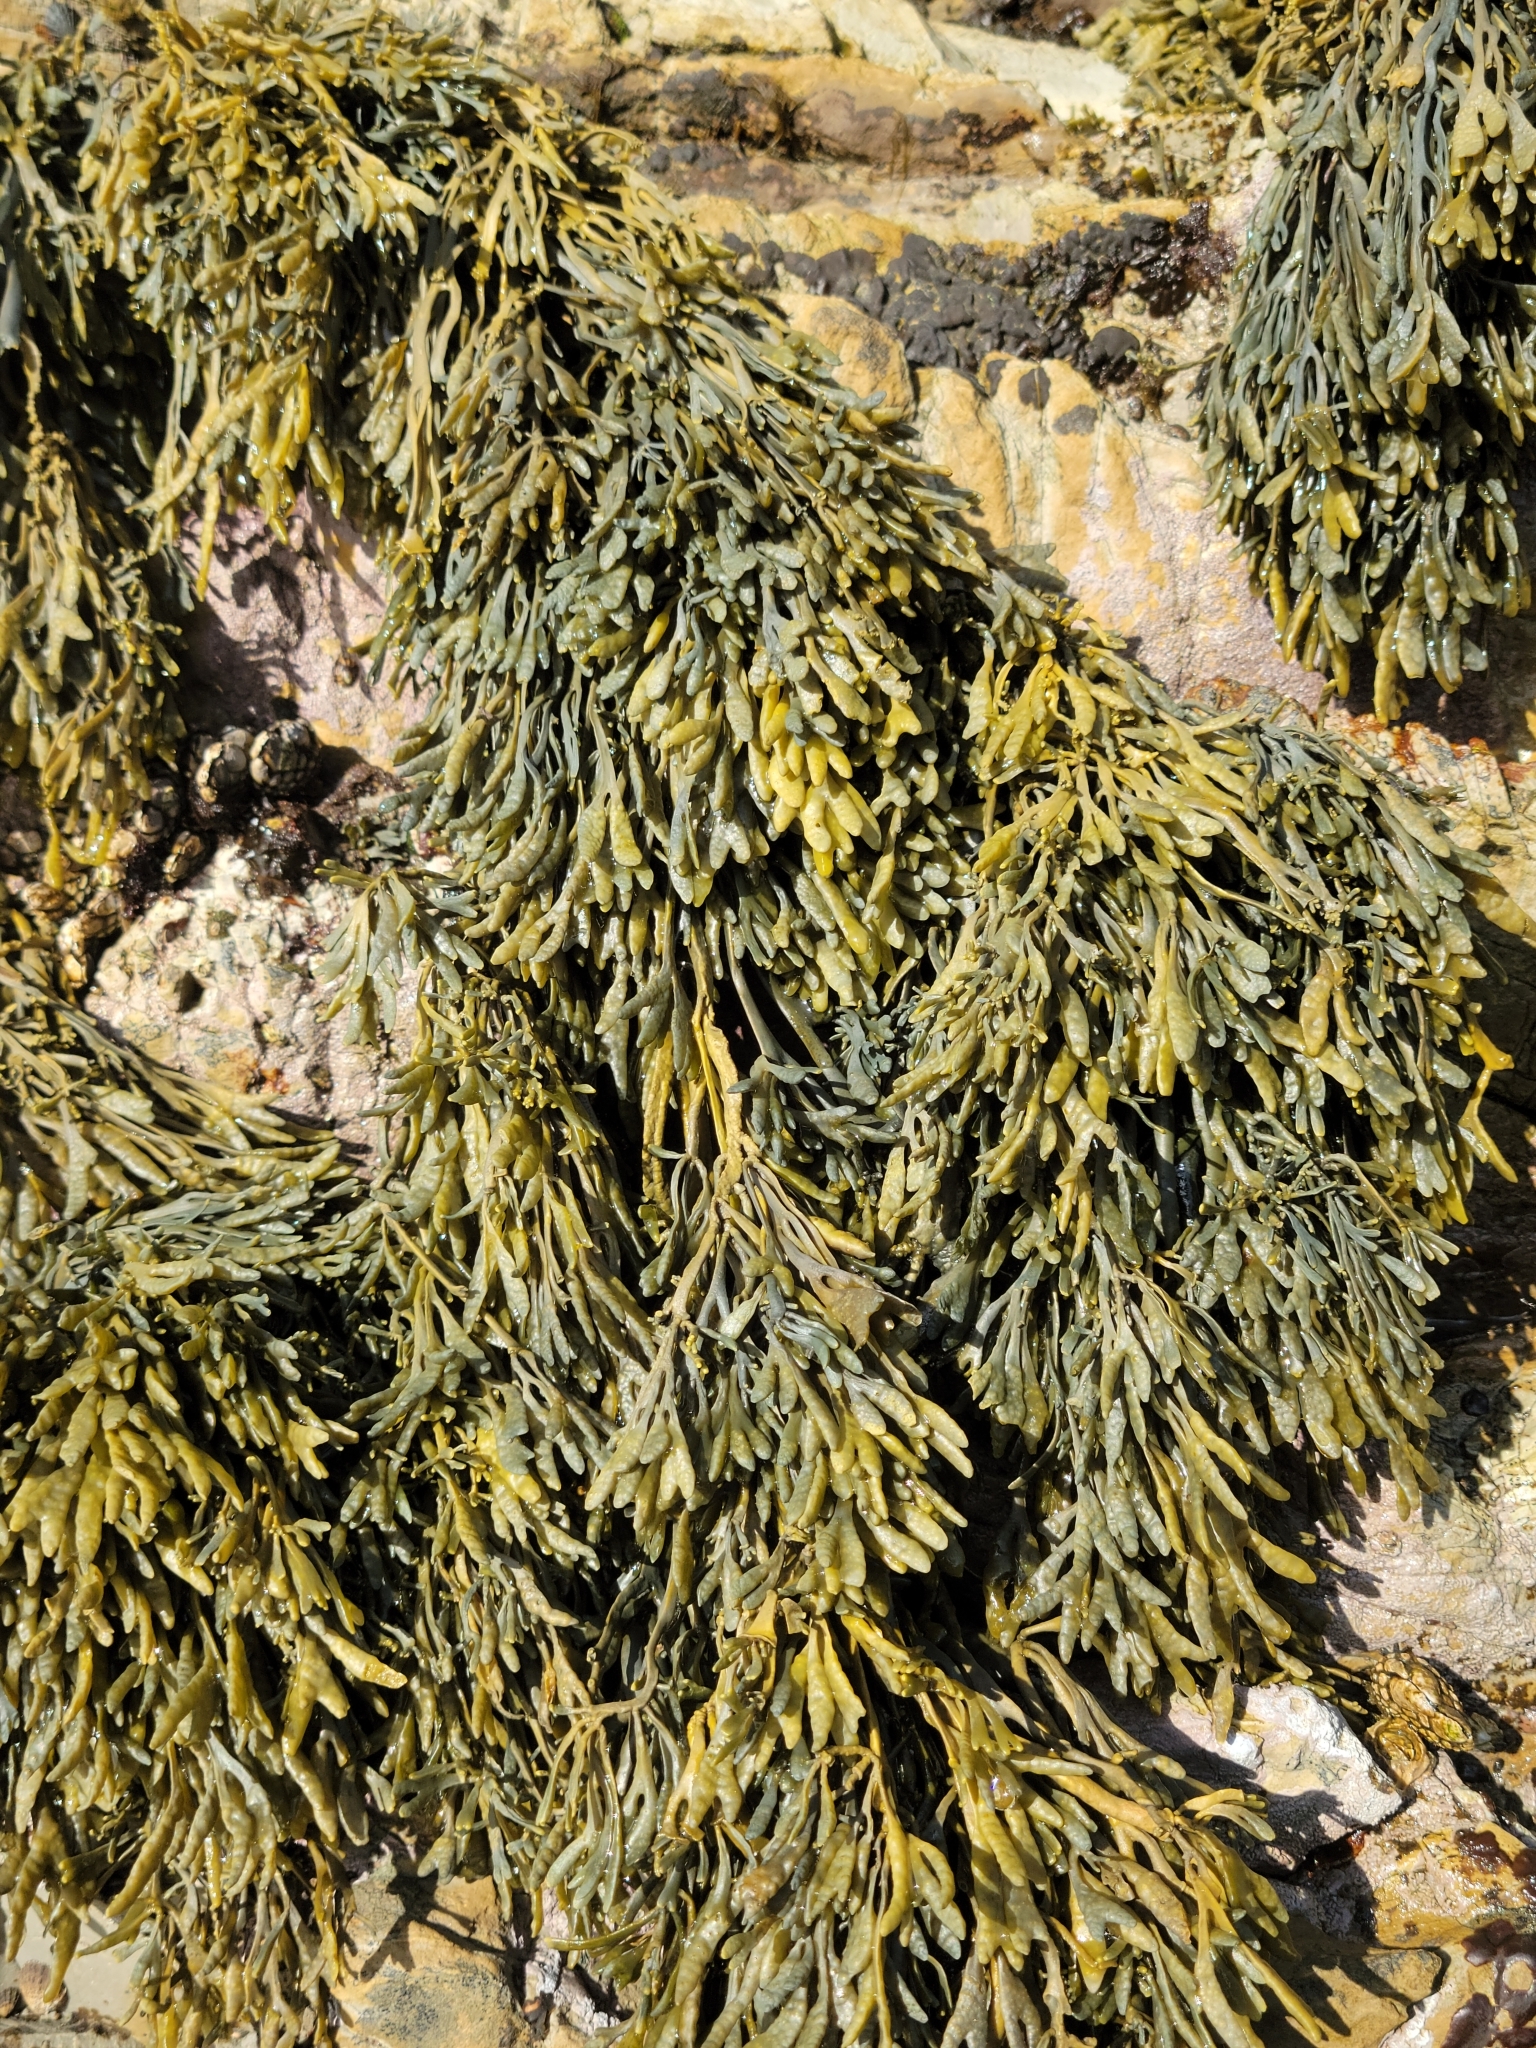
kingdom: Chromista
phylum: Ochrophyta
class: Phaeophyceae
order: Fucales
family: Fucaceae
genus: Silvetia
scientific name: Silvetia
